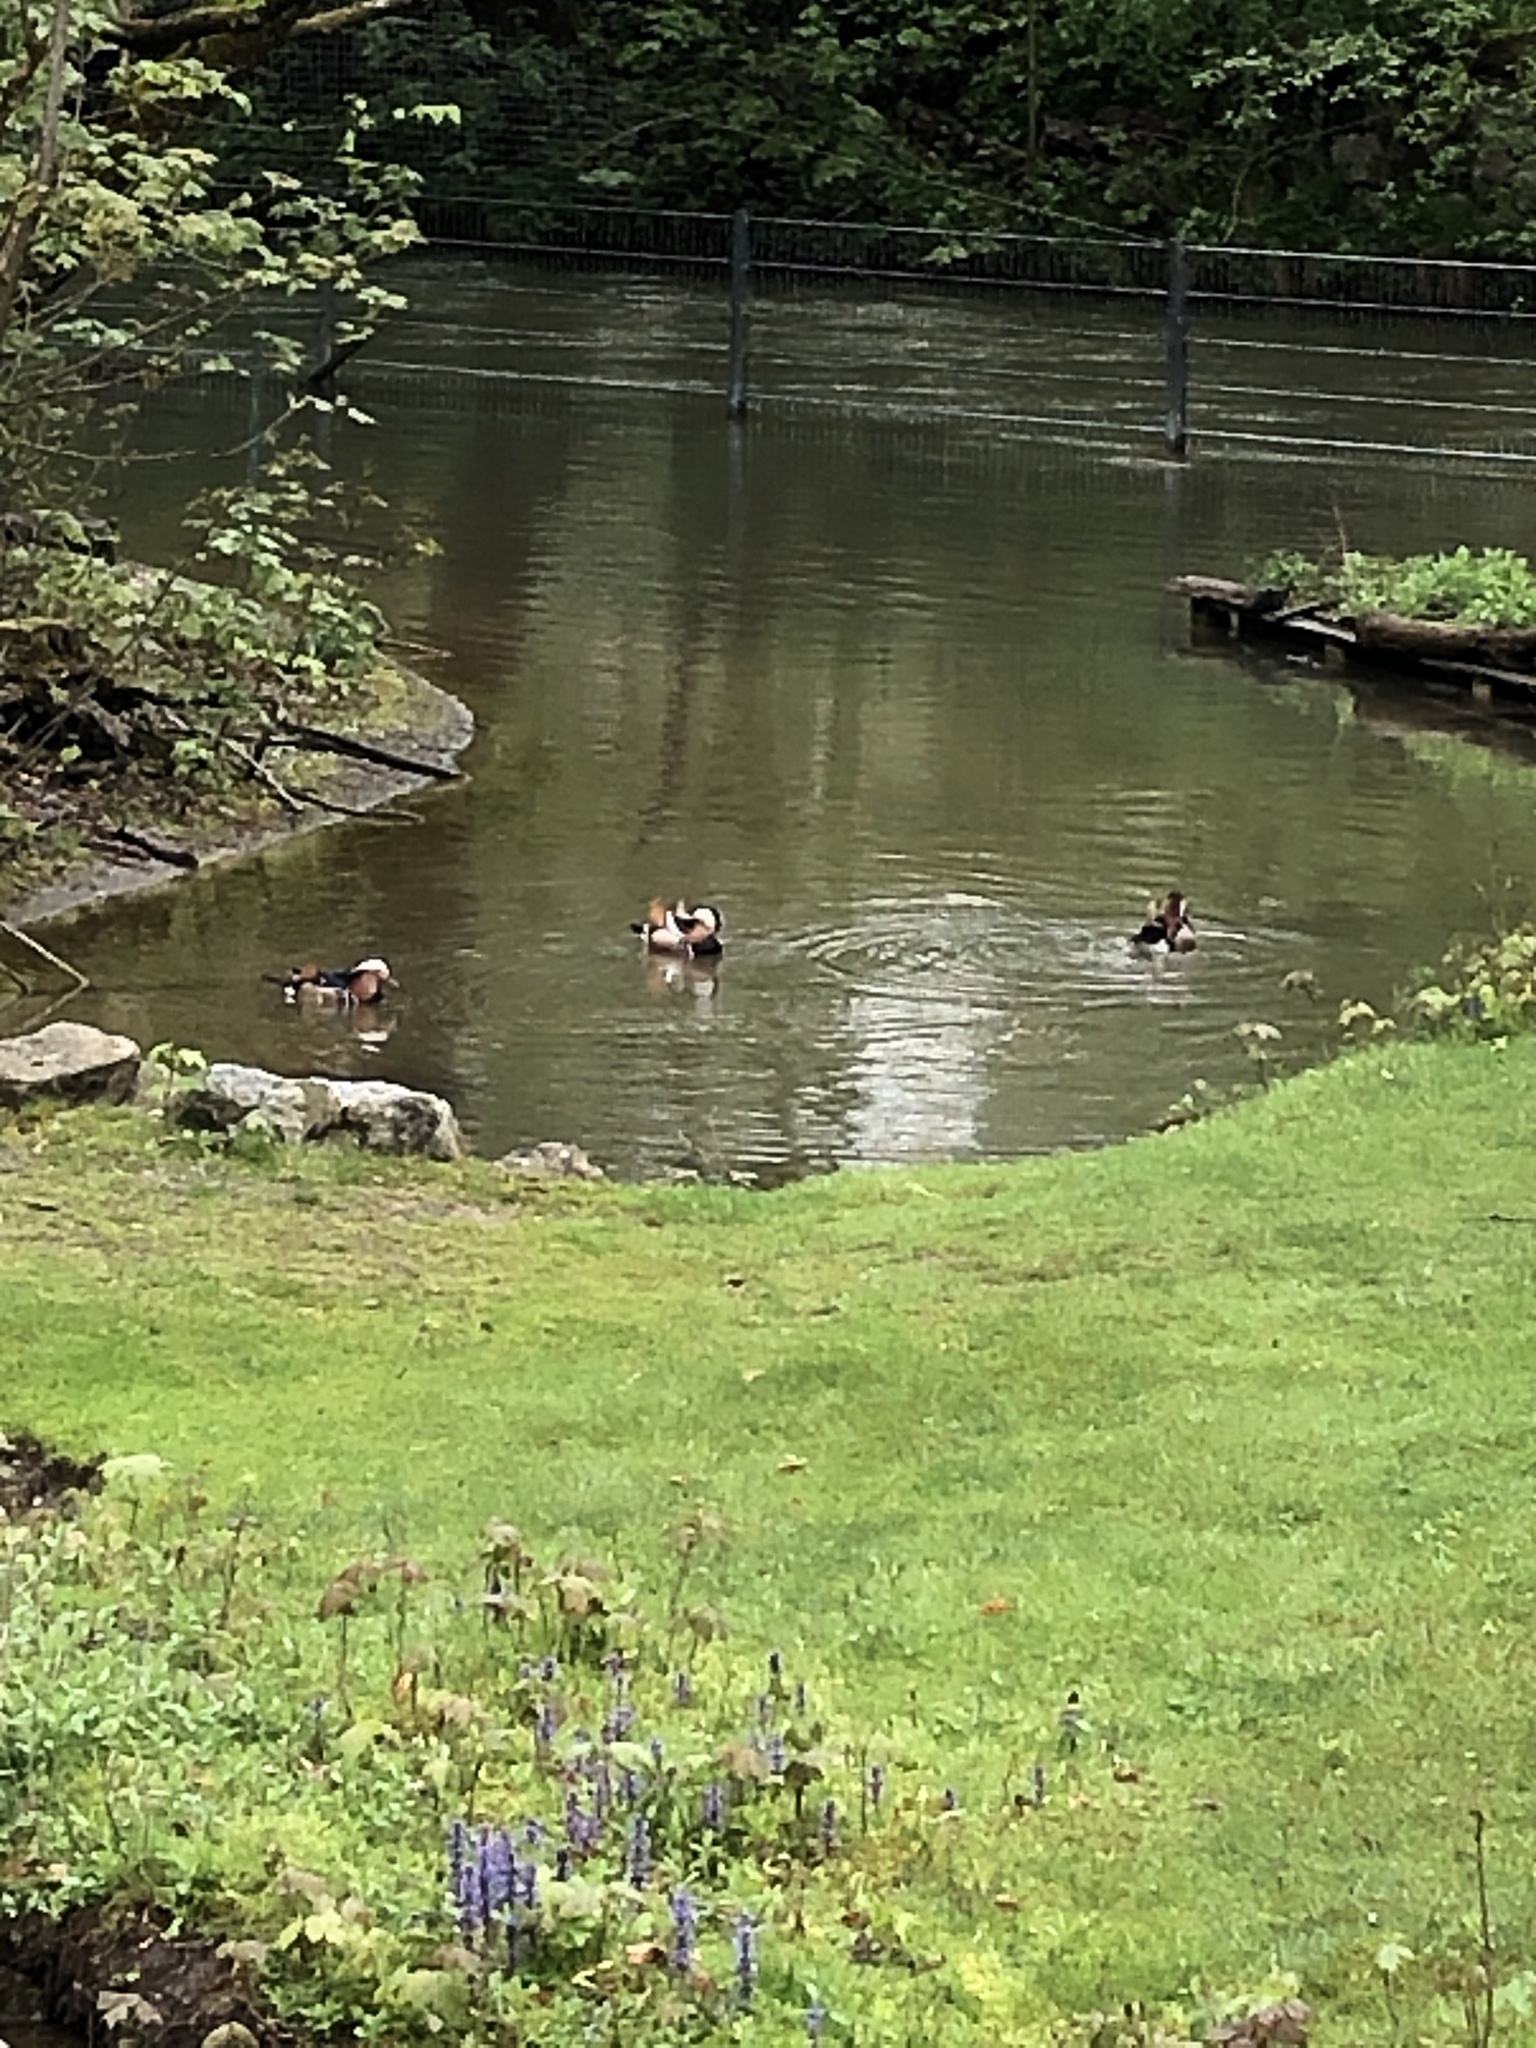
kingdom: Animalia
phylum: Chordata
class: Aves
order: Anseriformes
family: Anatidae
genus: Aix
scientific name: Aix galericulata
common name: Mandarin duck
